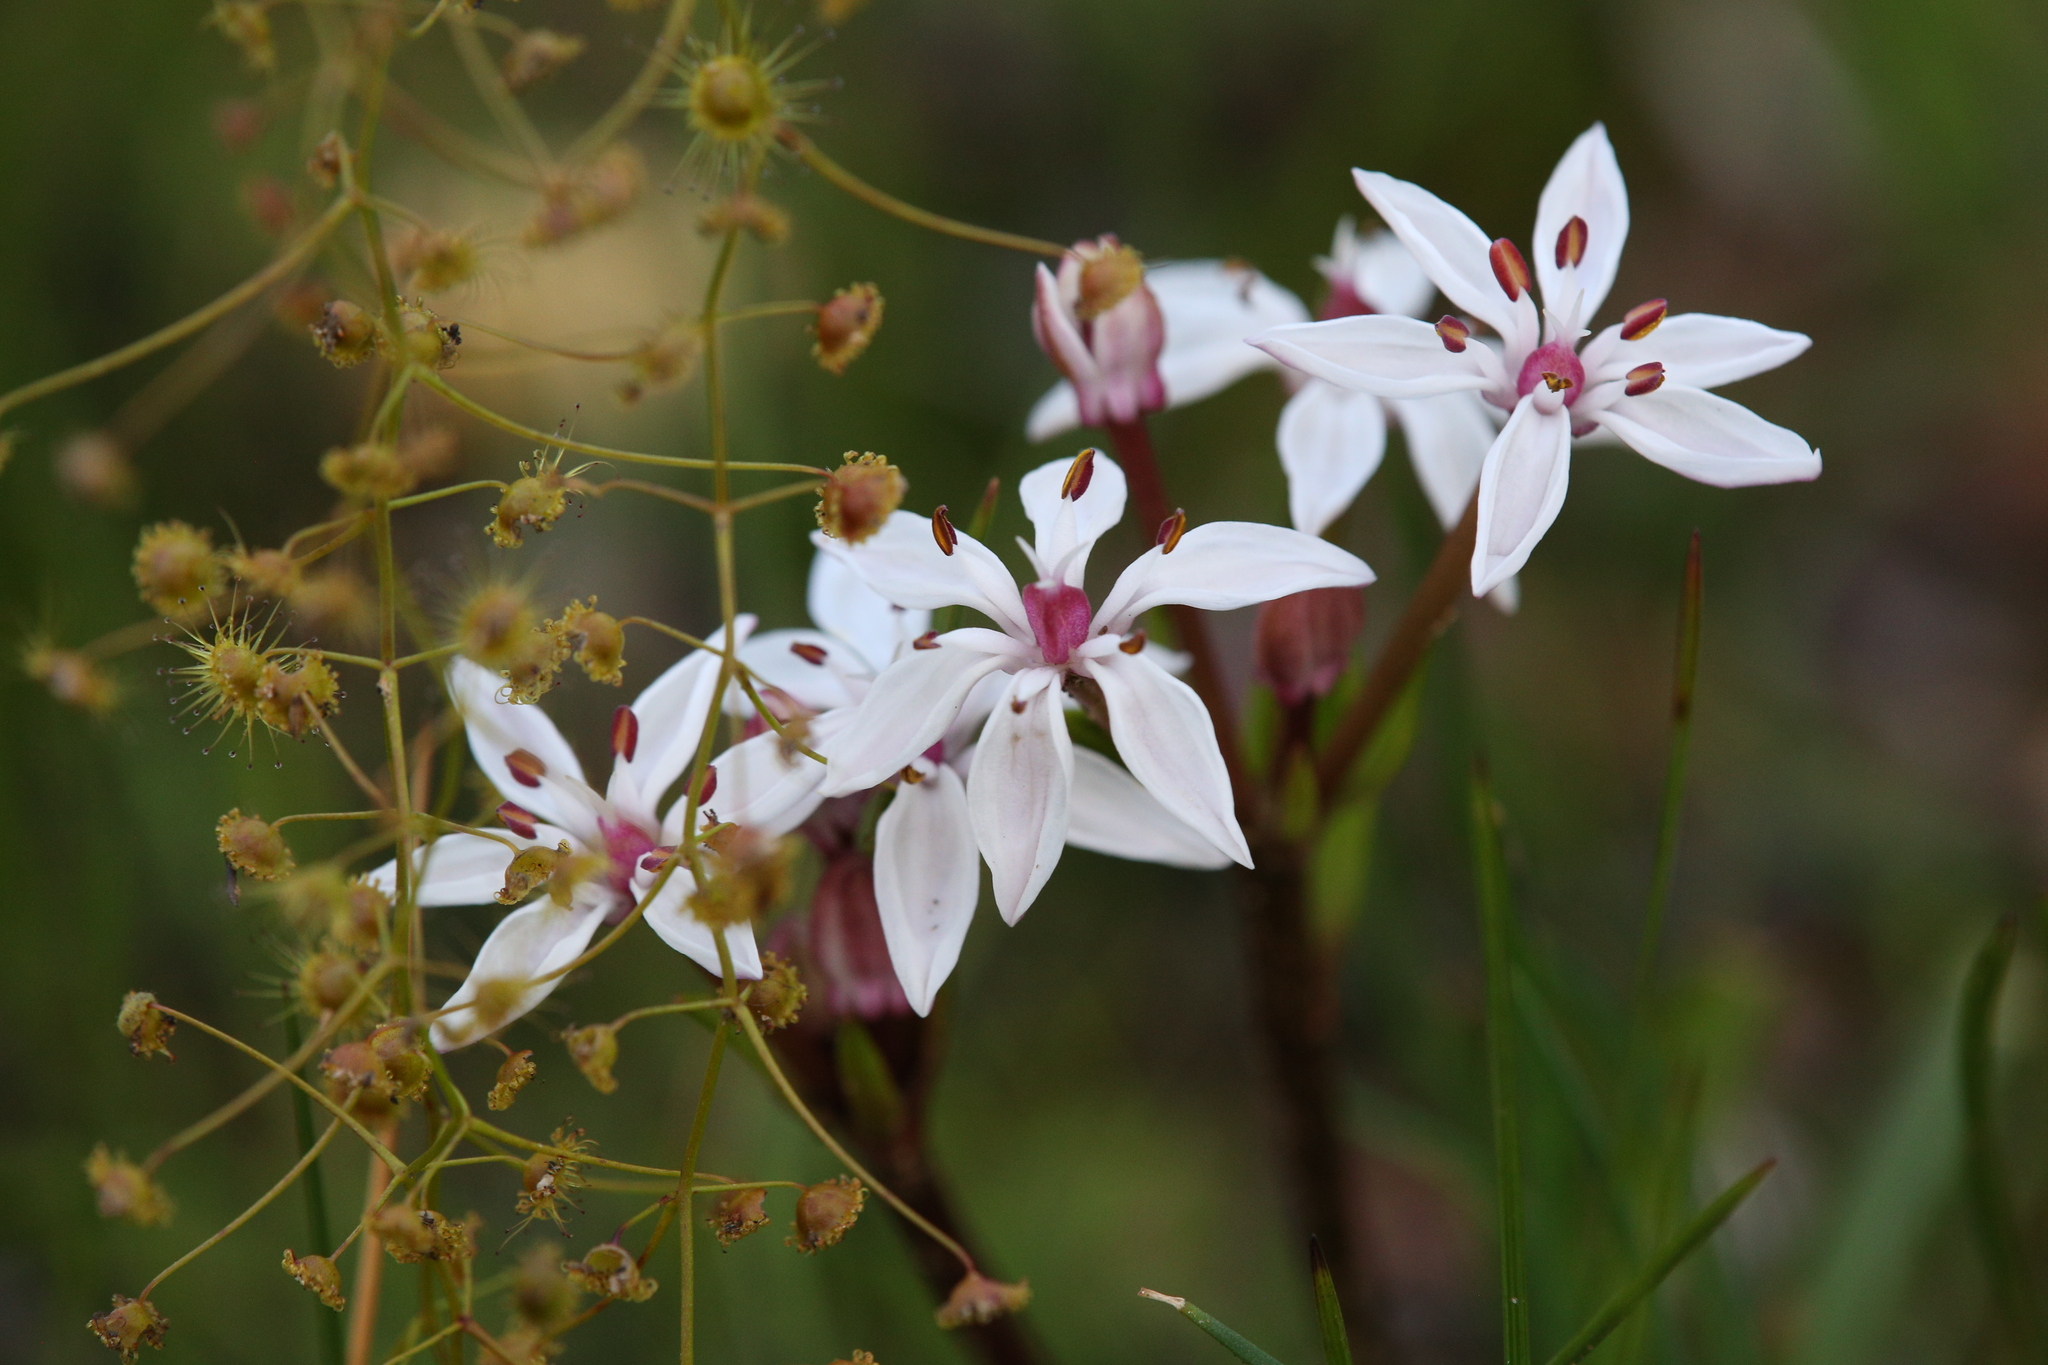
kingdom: Plantae
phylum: Tracheophyta
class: Liliopsida
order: Liliales
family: Colchicaceae
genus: Burchardia
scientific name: Burchardia multiflora
